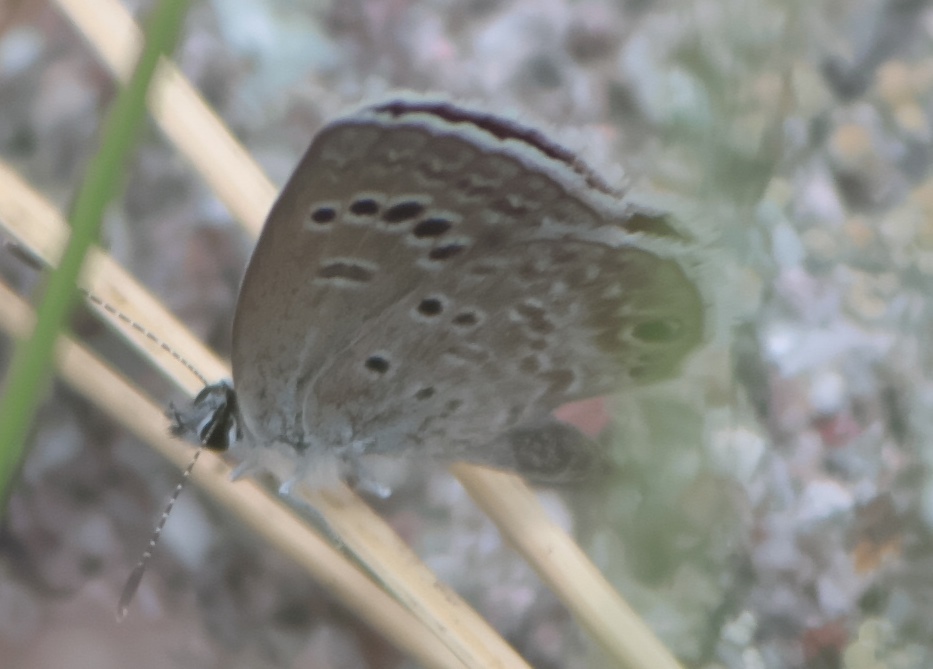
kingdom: Animalia
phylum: Arthropoda
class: Insecta
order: Lepidoptera
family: Lycaenidae
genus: Echinargus
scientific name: Echinargus isola
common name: Reakirt's blue
